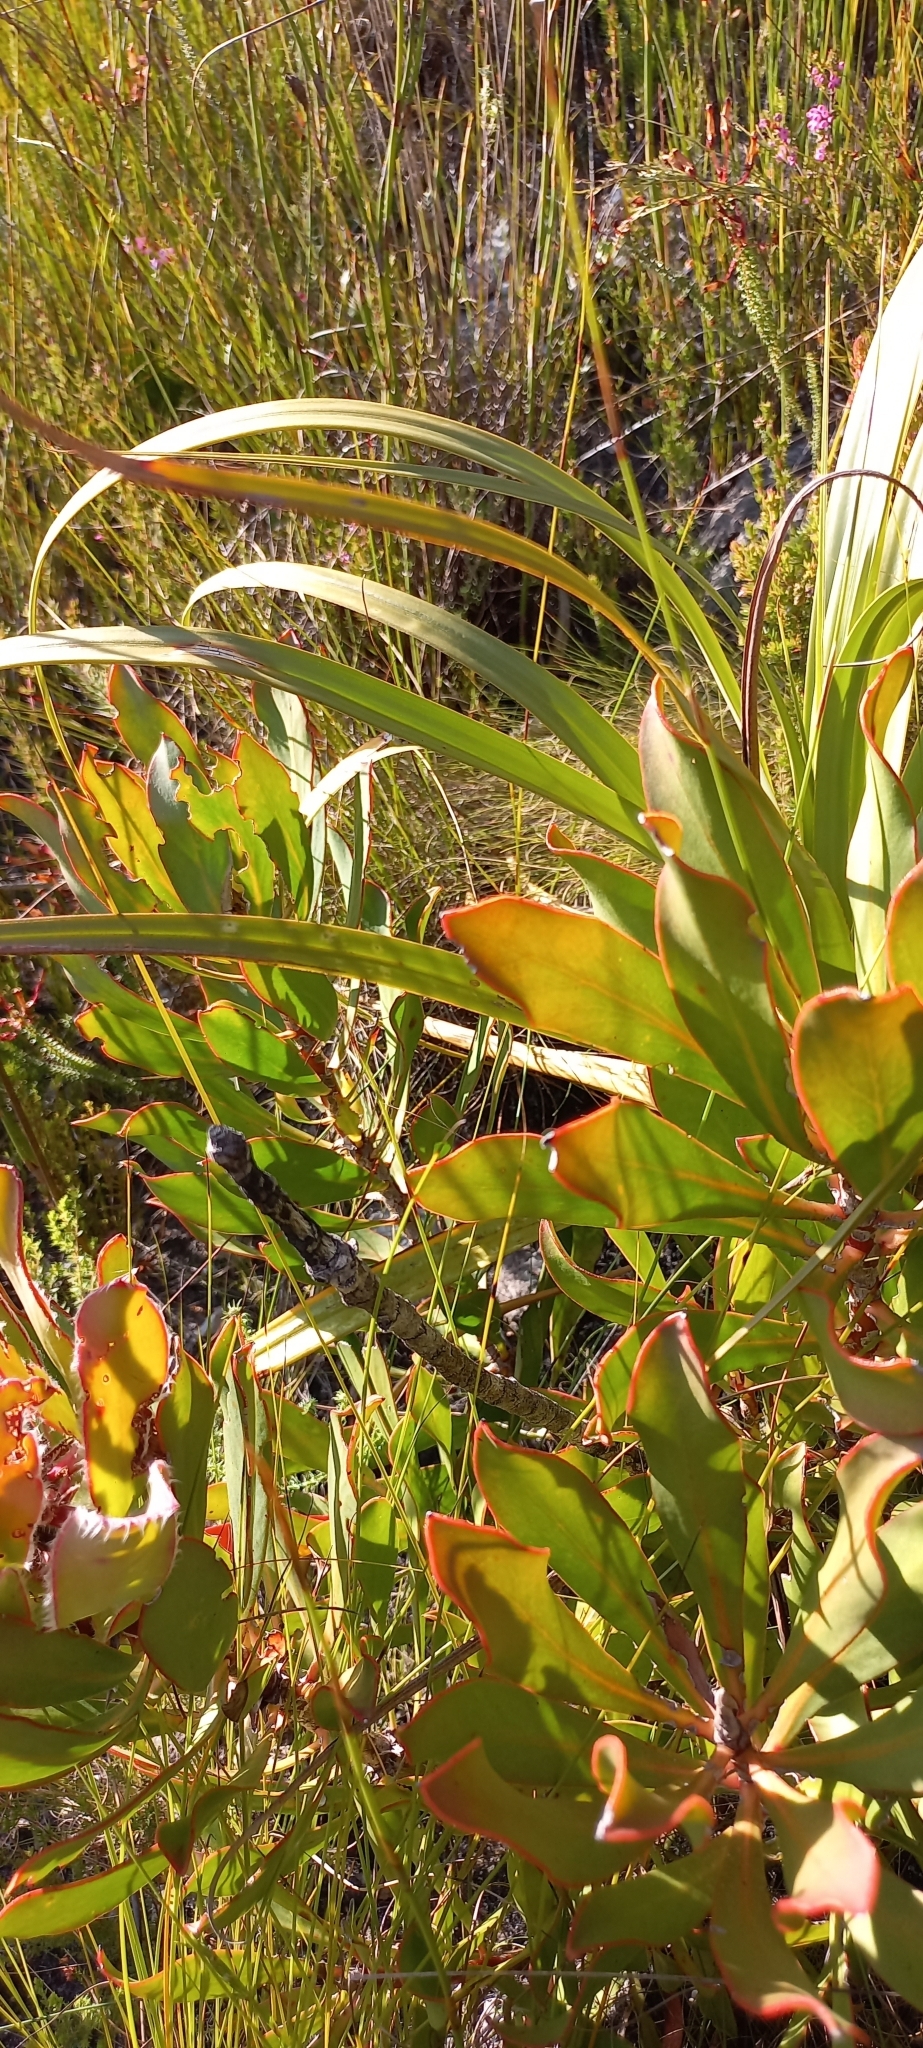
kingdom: Plantae
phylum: Tracheophyta
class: Magnoliopsida
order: Proteales
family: Proteaceae
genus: Protea
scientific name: Protea speciosa
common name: Brown-beard sugarbush
